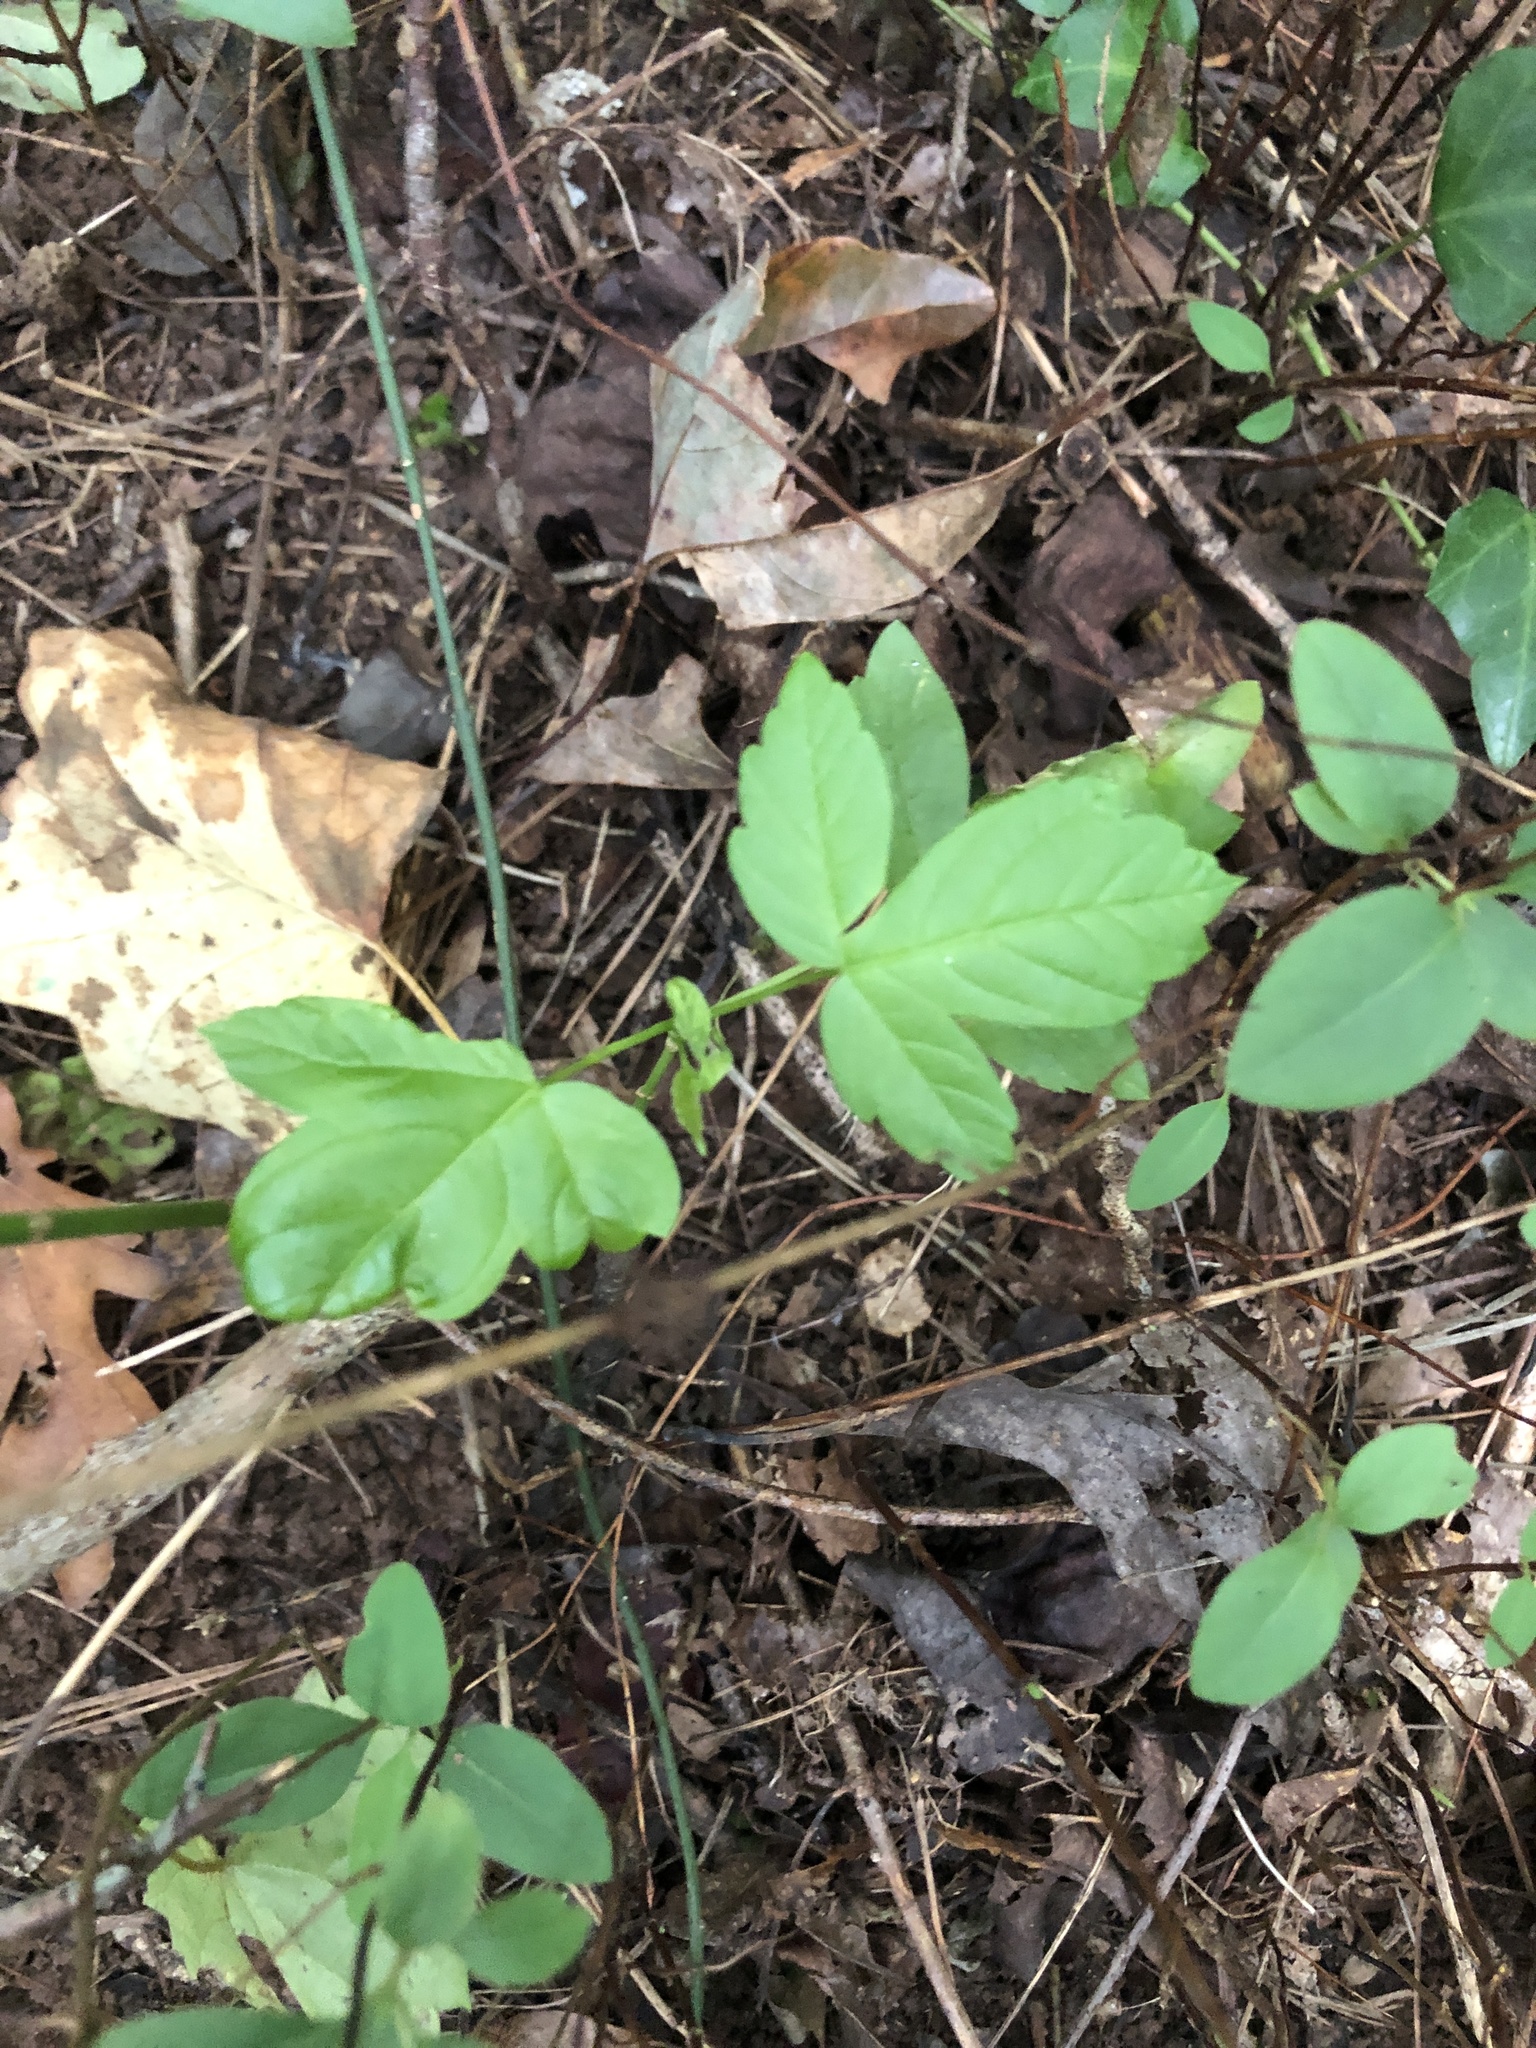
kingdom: Plantae
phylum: Tracheophyta
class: Magnoliopsida
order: Sapindales
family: Sapindaceae
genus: Acer
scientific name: Acer negundo
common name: Ashleaf maple
